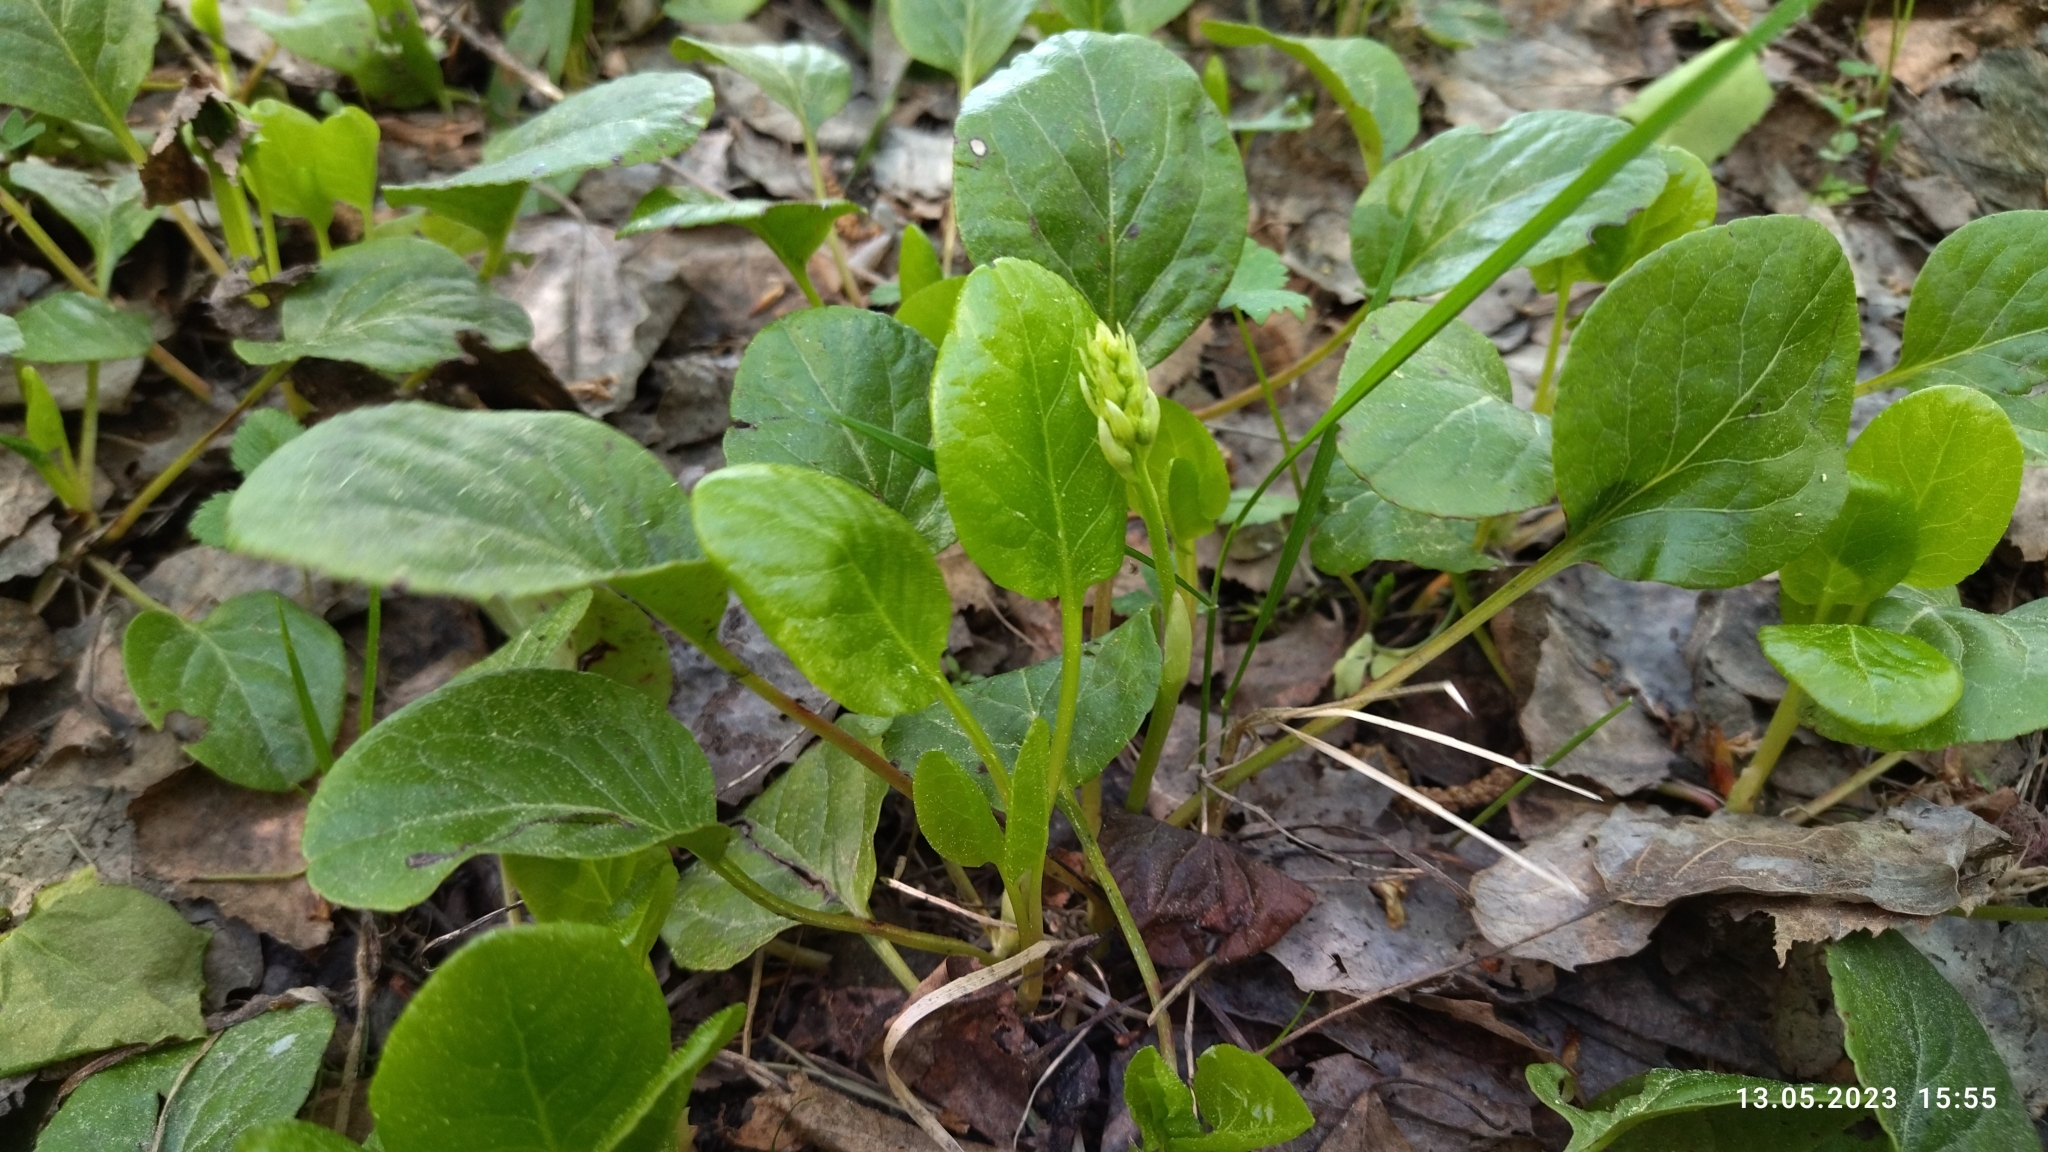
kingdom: Plantae
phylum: Tracheophyta
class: Magnoliopsida
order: Ericales
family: Ericaceae
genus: Pyrola
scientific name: Pyrola rotundifolia
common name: Round-leaved wintergreen
